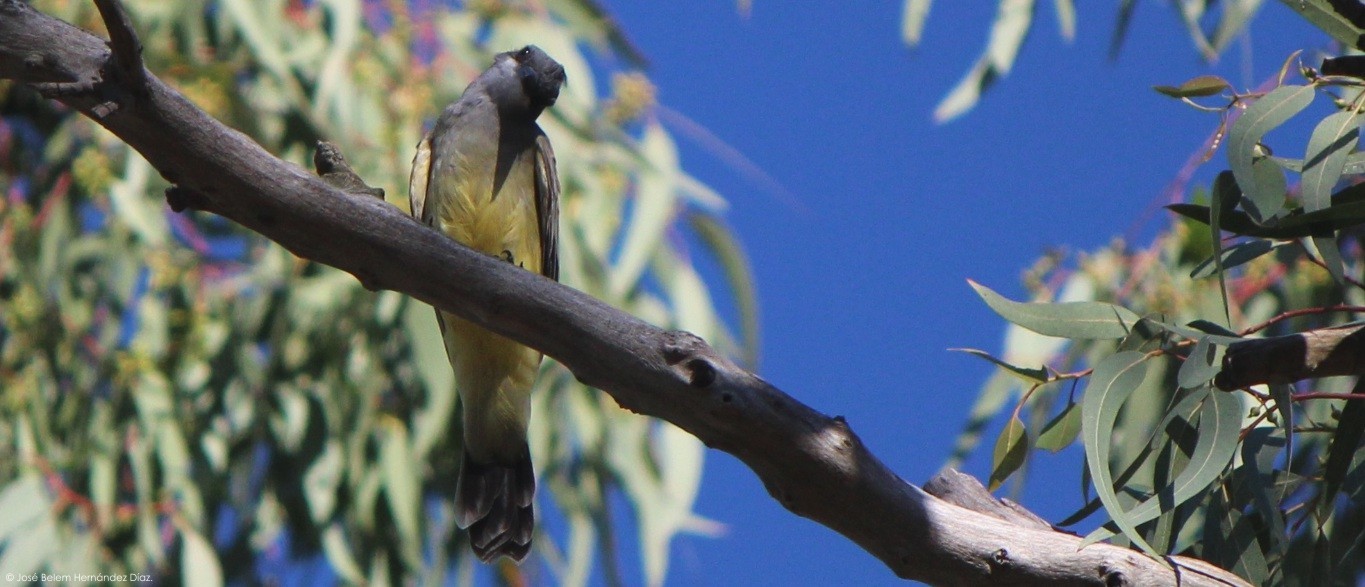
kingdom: Animalia
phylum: Chordata
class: Aves
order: Passeriformes
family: Tyrannidae
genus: Tyrannus
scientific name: Tyrannus vociferans
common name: Cassin's kingbird
